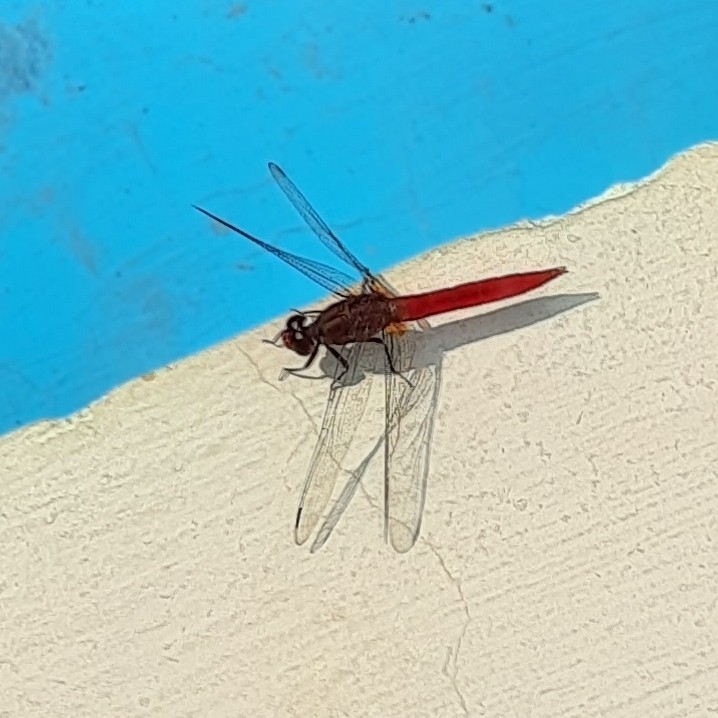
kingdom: Animalia
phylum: Arthropoda
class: Insecta
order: Odonata
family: Libellulidae
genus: Orthetrum
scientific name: Orthetrum chrysis
